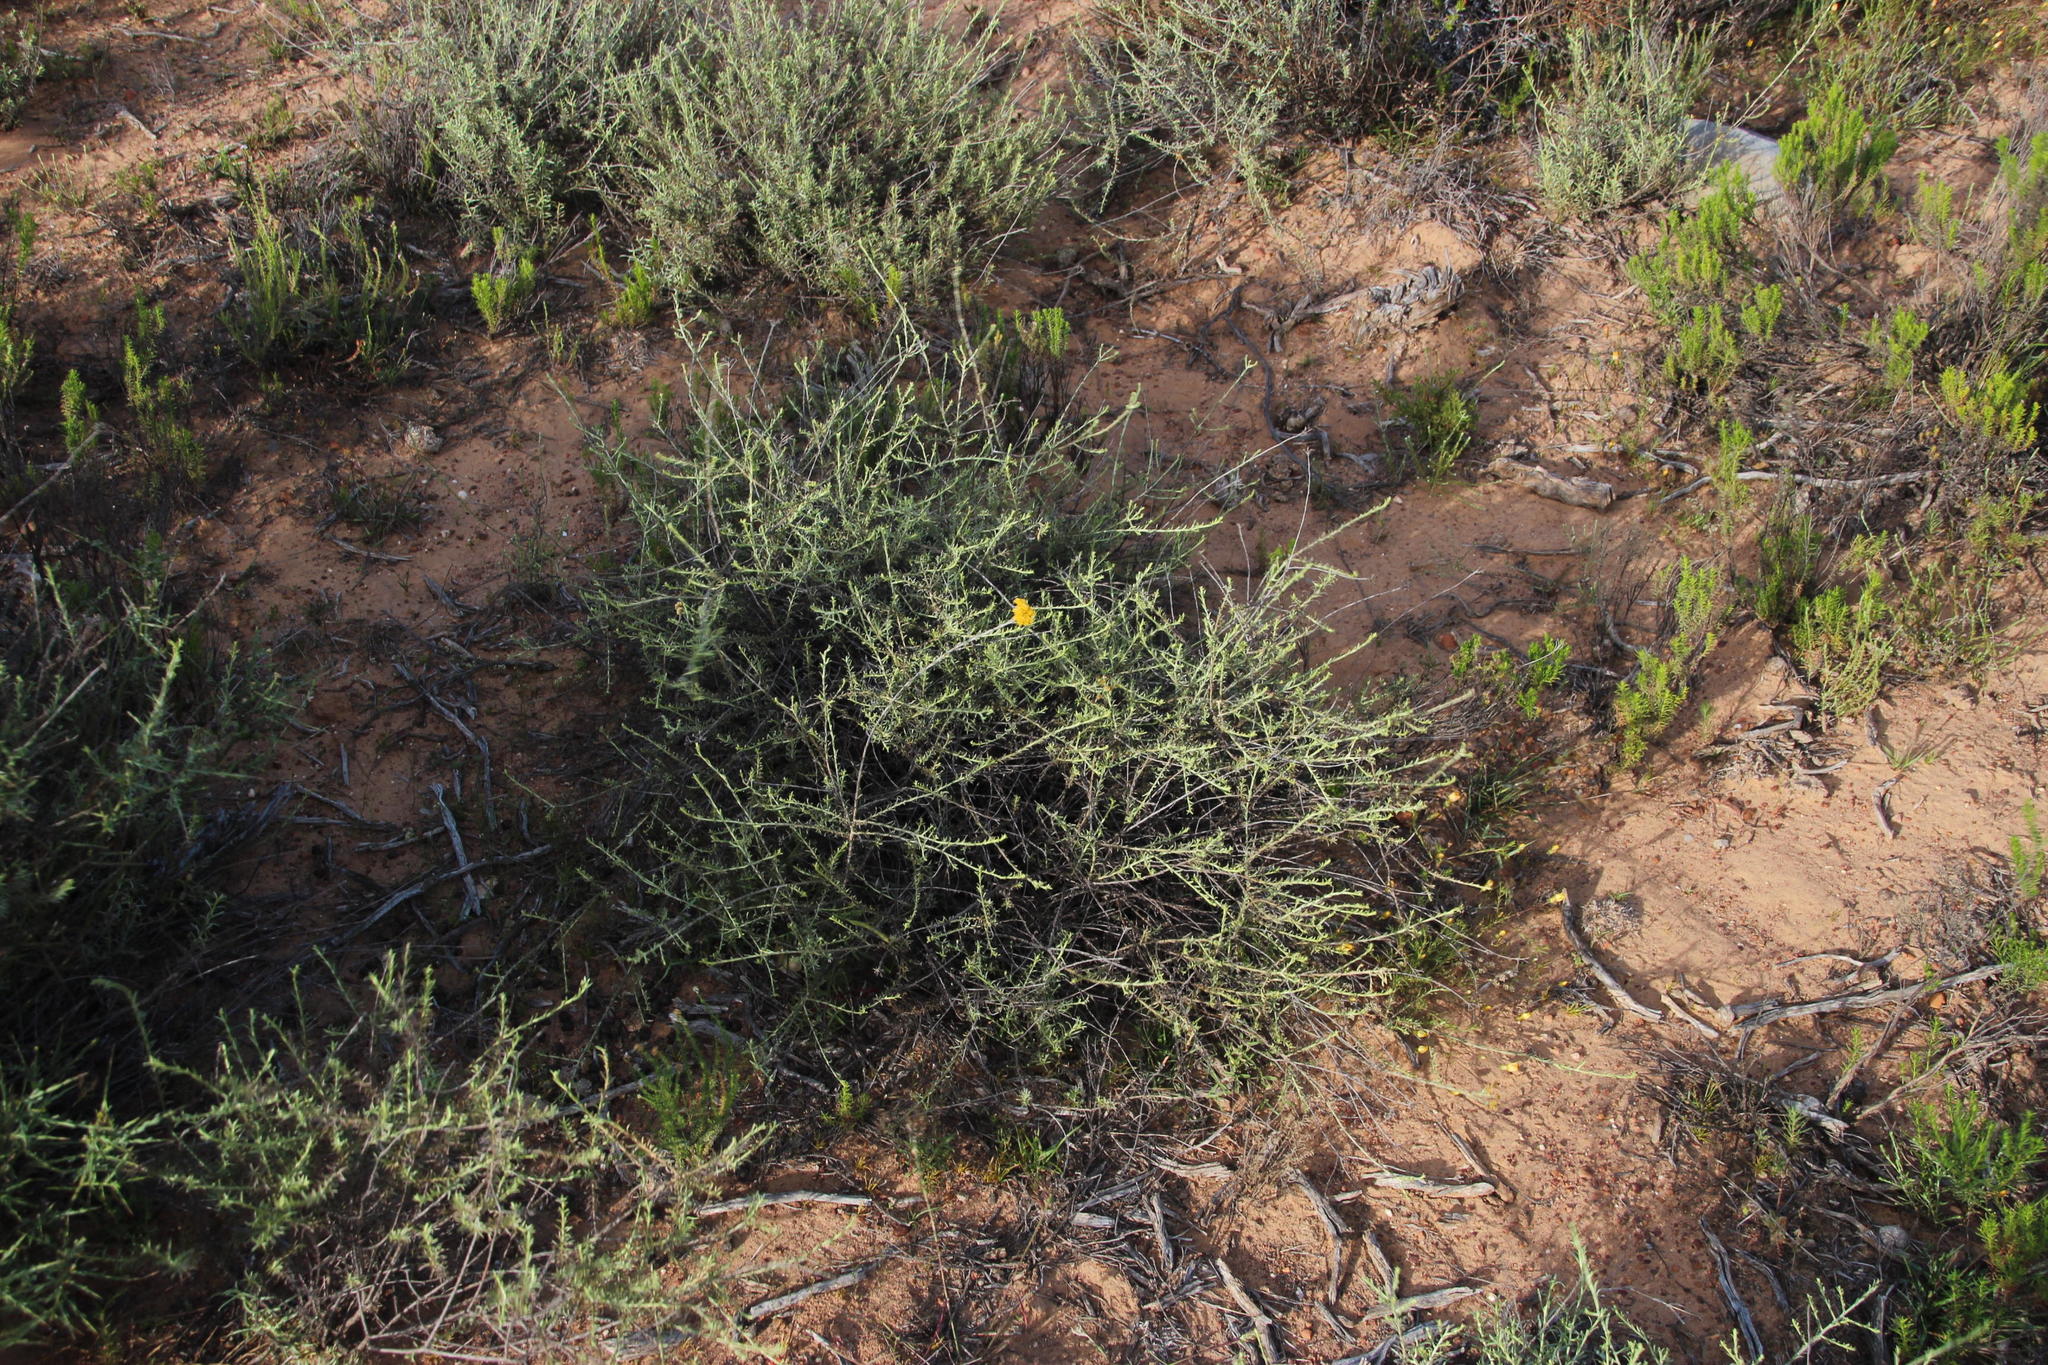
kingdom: Plantae
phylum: Tracheophyta
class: Magnoliopsida
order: Asterales
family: Asteraceae
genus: Helichrysum
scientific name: Helichrysum rutilans
